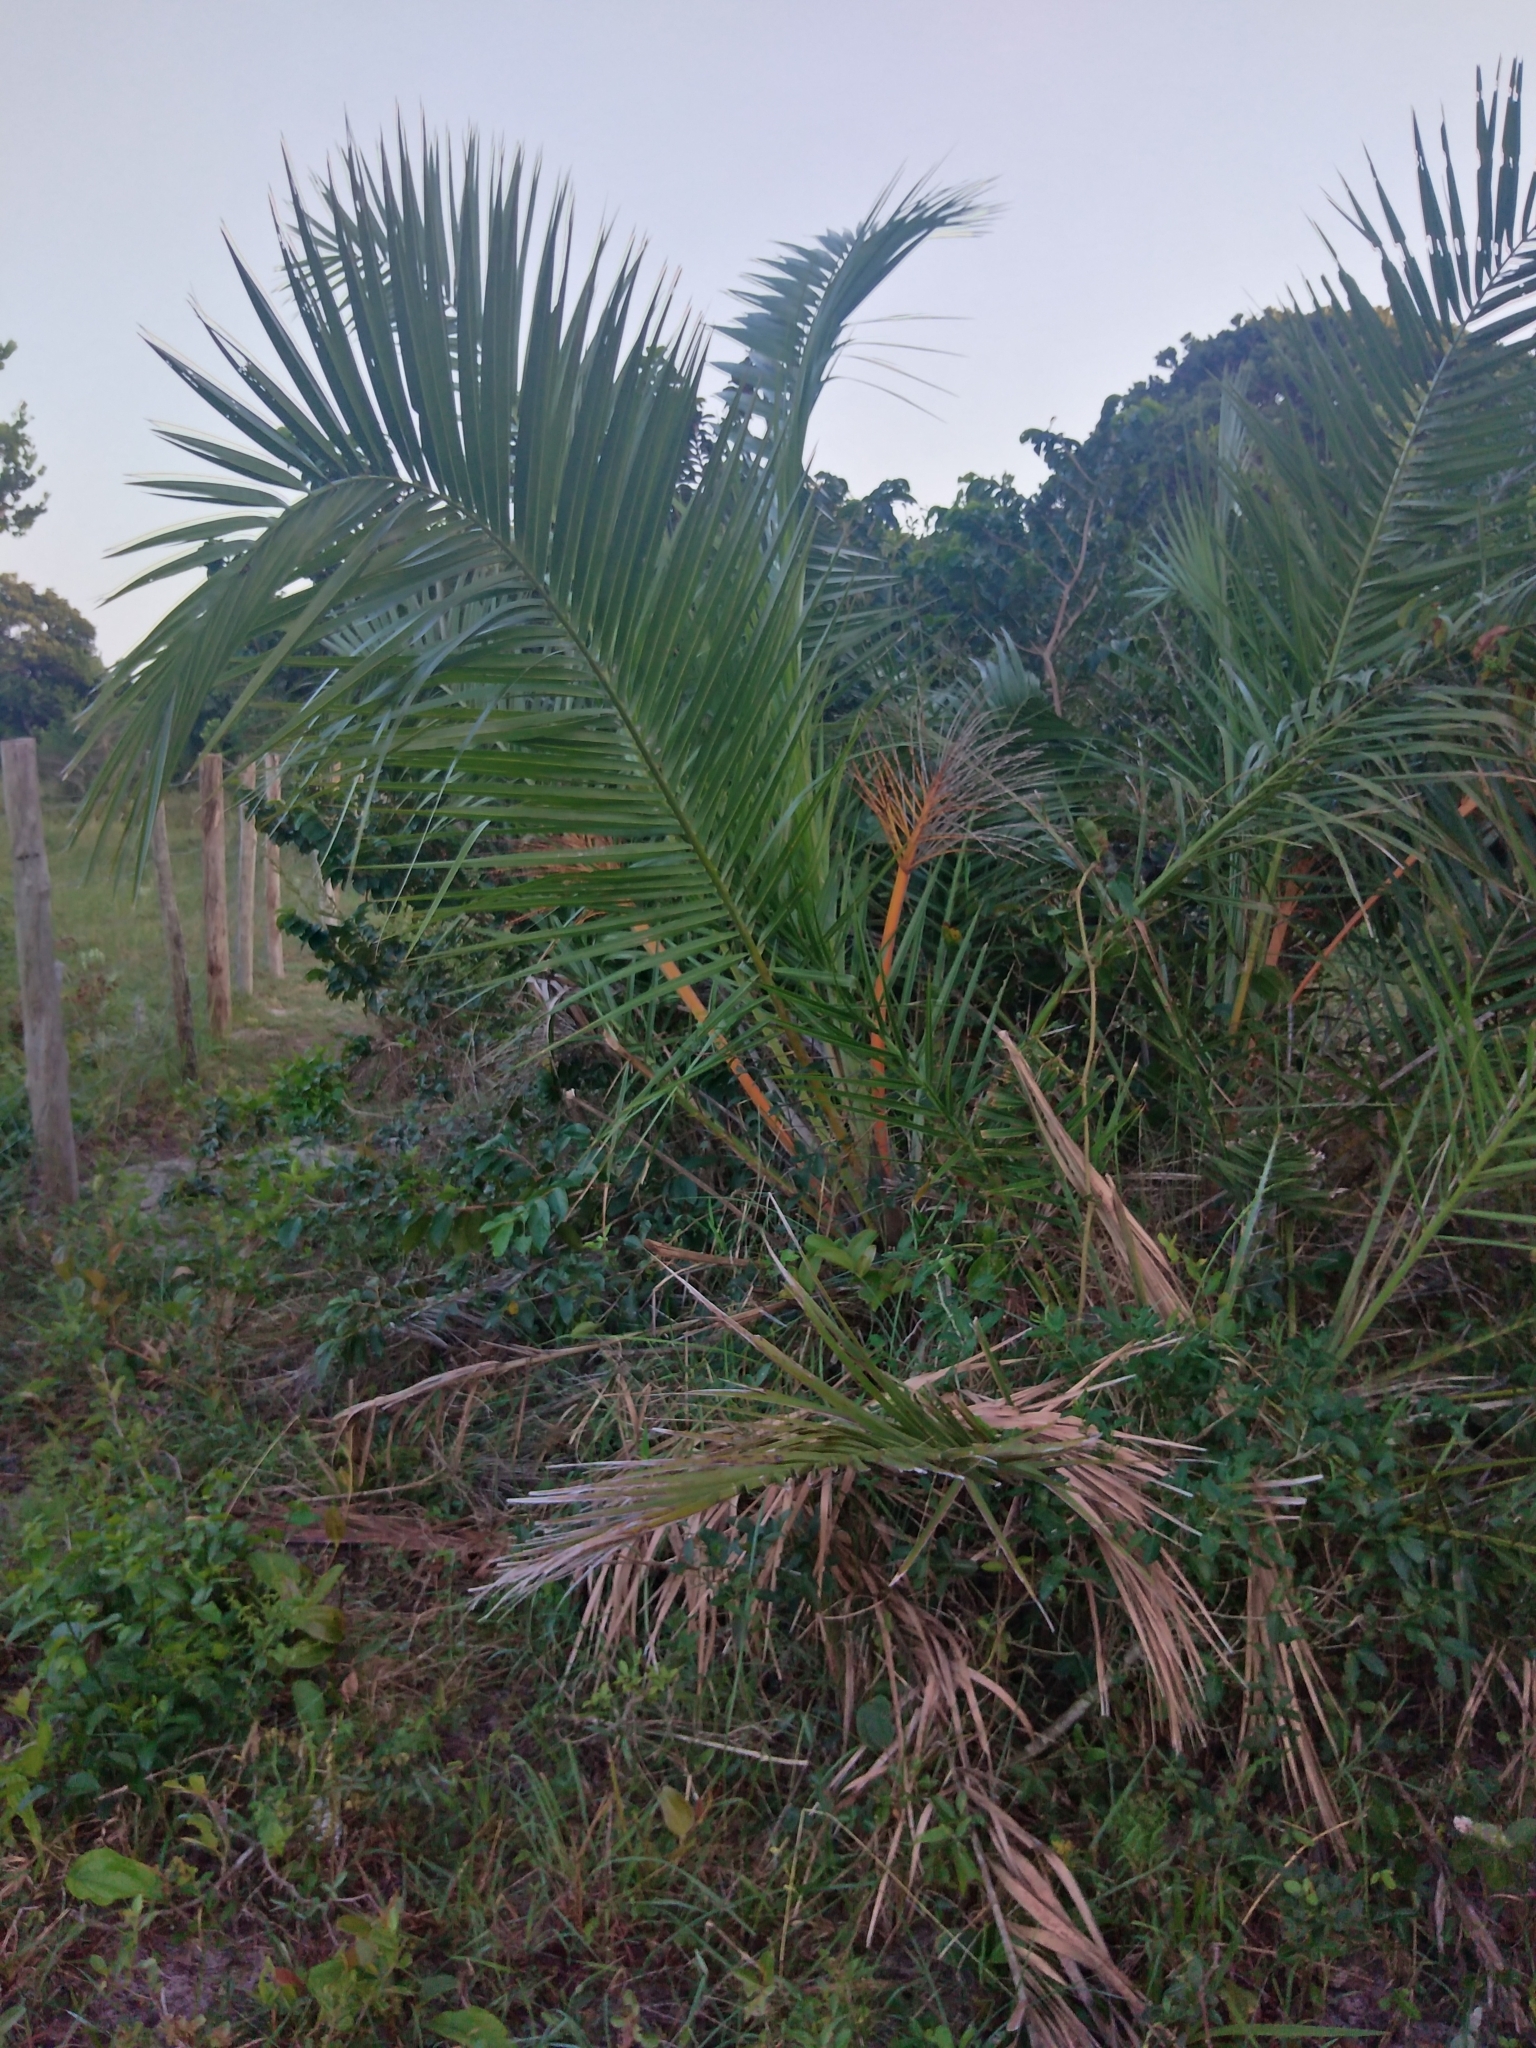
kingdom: Plantae
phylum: Tracheophyta
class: Liliopsida
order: Arecales
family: Arecaceae
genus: Phoenix
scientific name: Phoenix reclinata
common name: Senegal date palm
